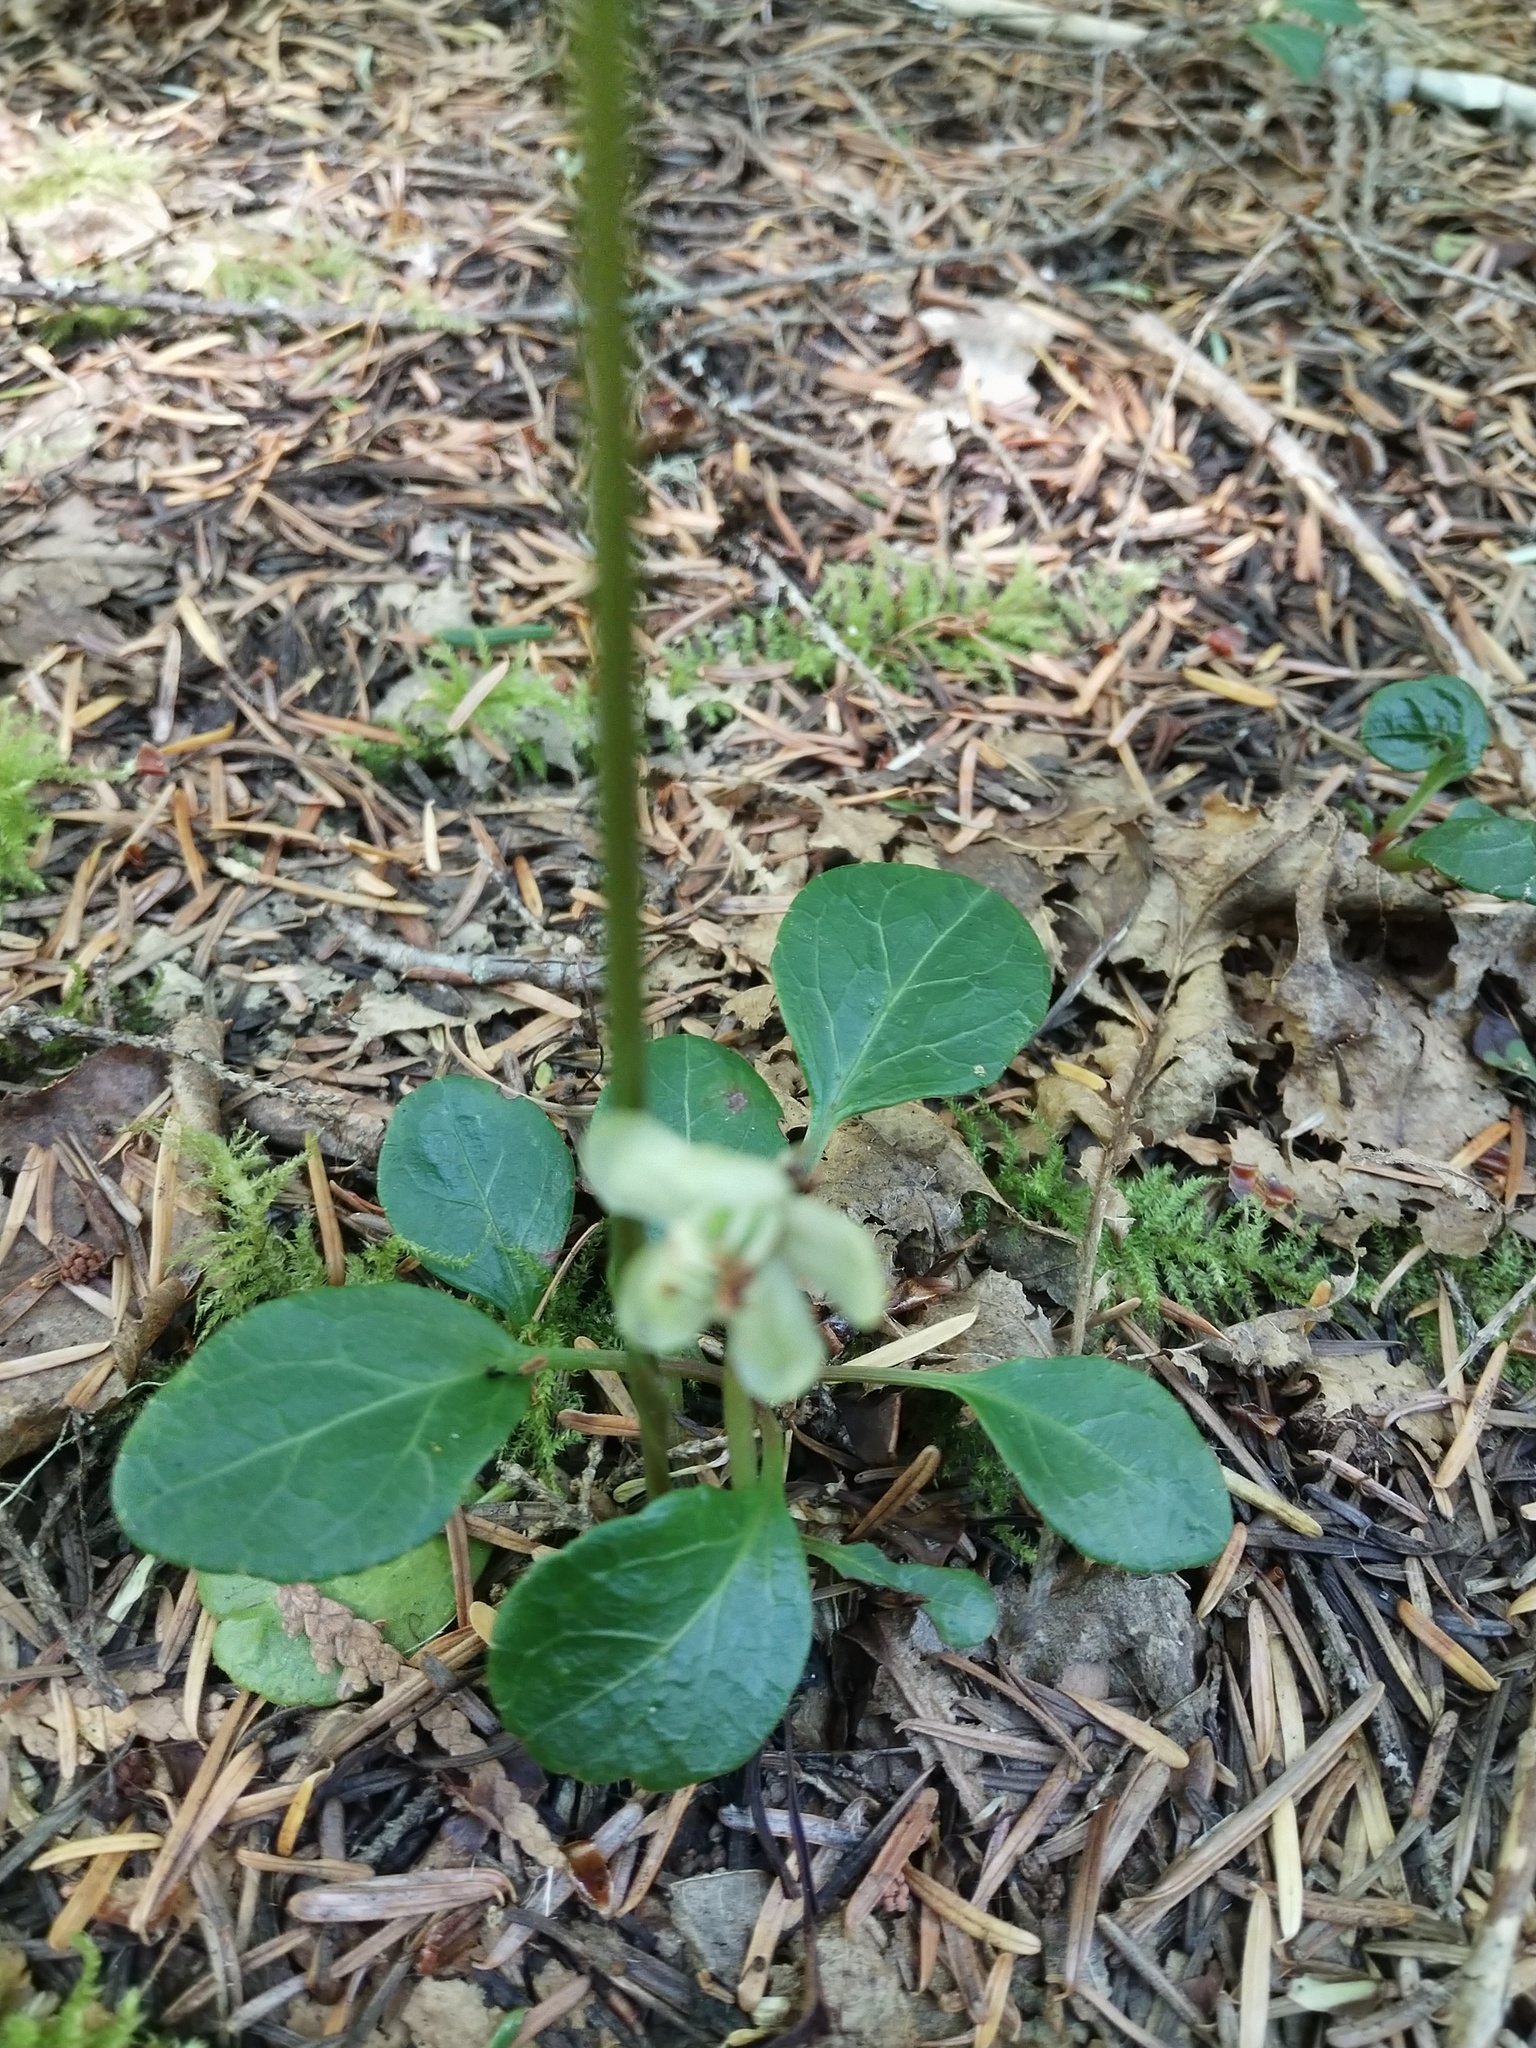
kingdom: Plantae
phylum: Tracheophyta
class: Magnoliopsida
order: Ericales
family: Ericaceae
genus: Pyrola
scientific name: Pyrola chlorantha
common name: Green wintergreen
